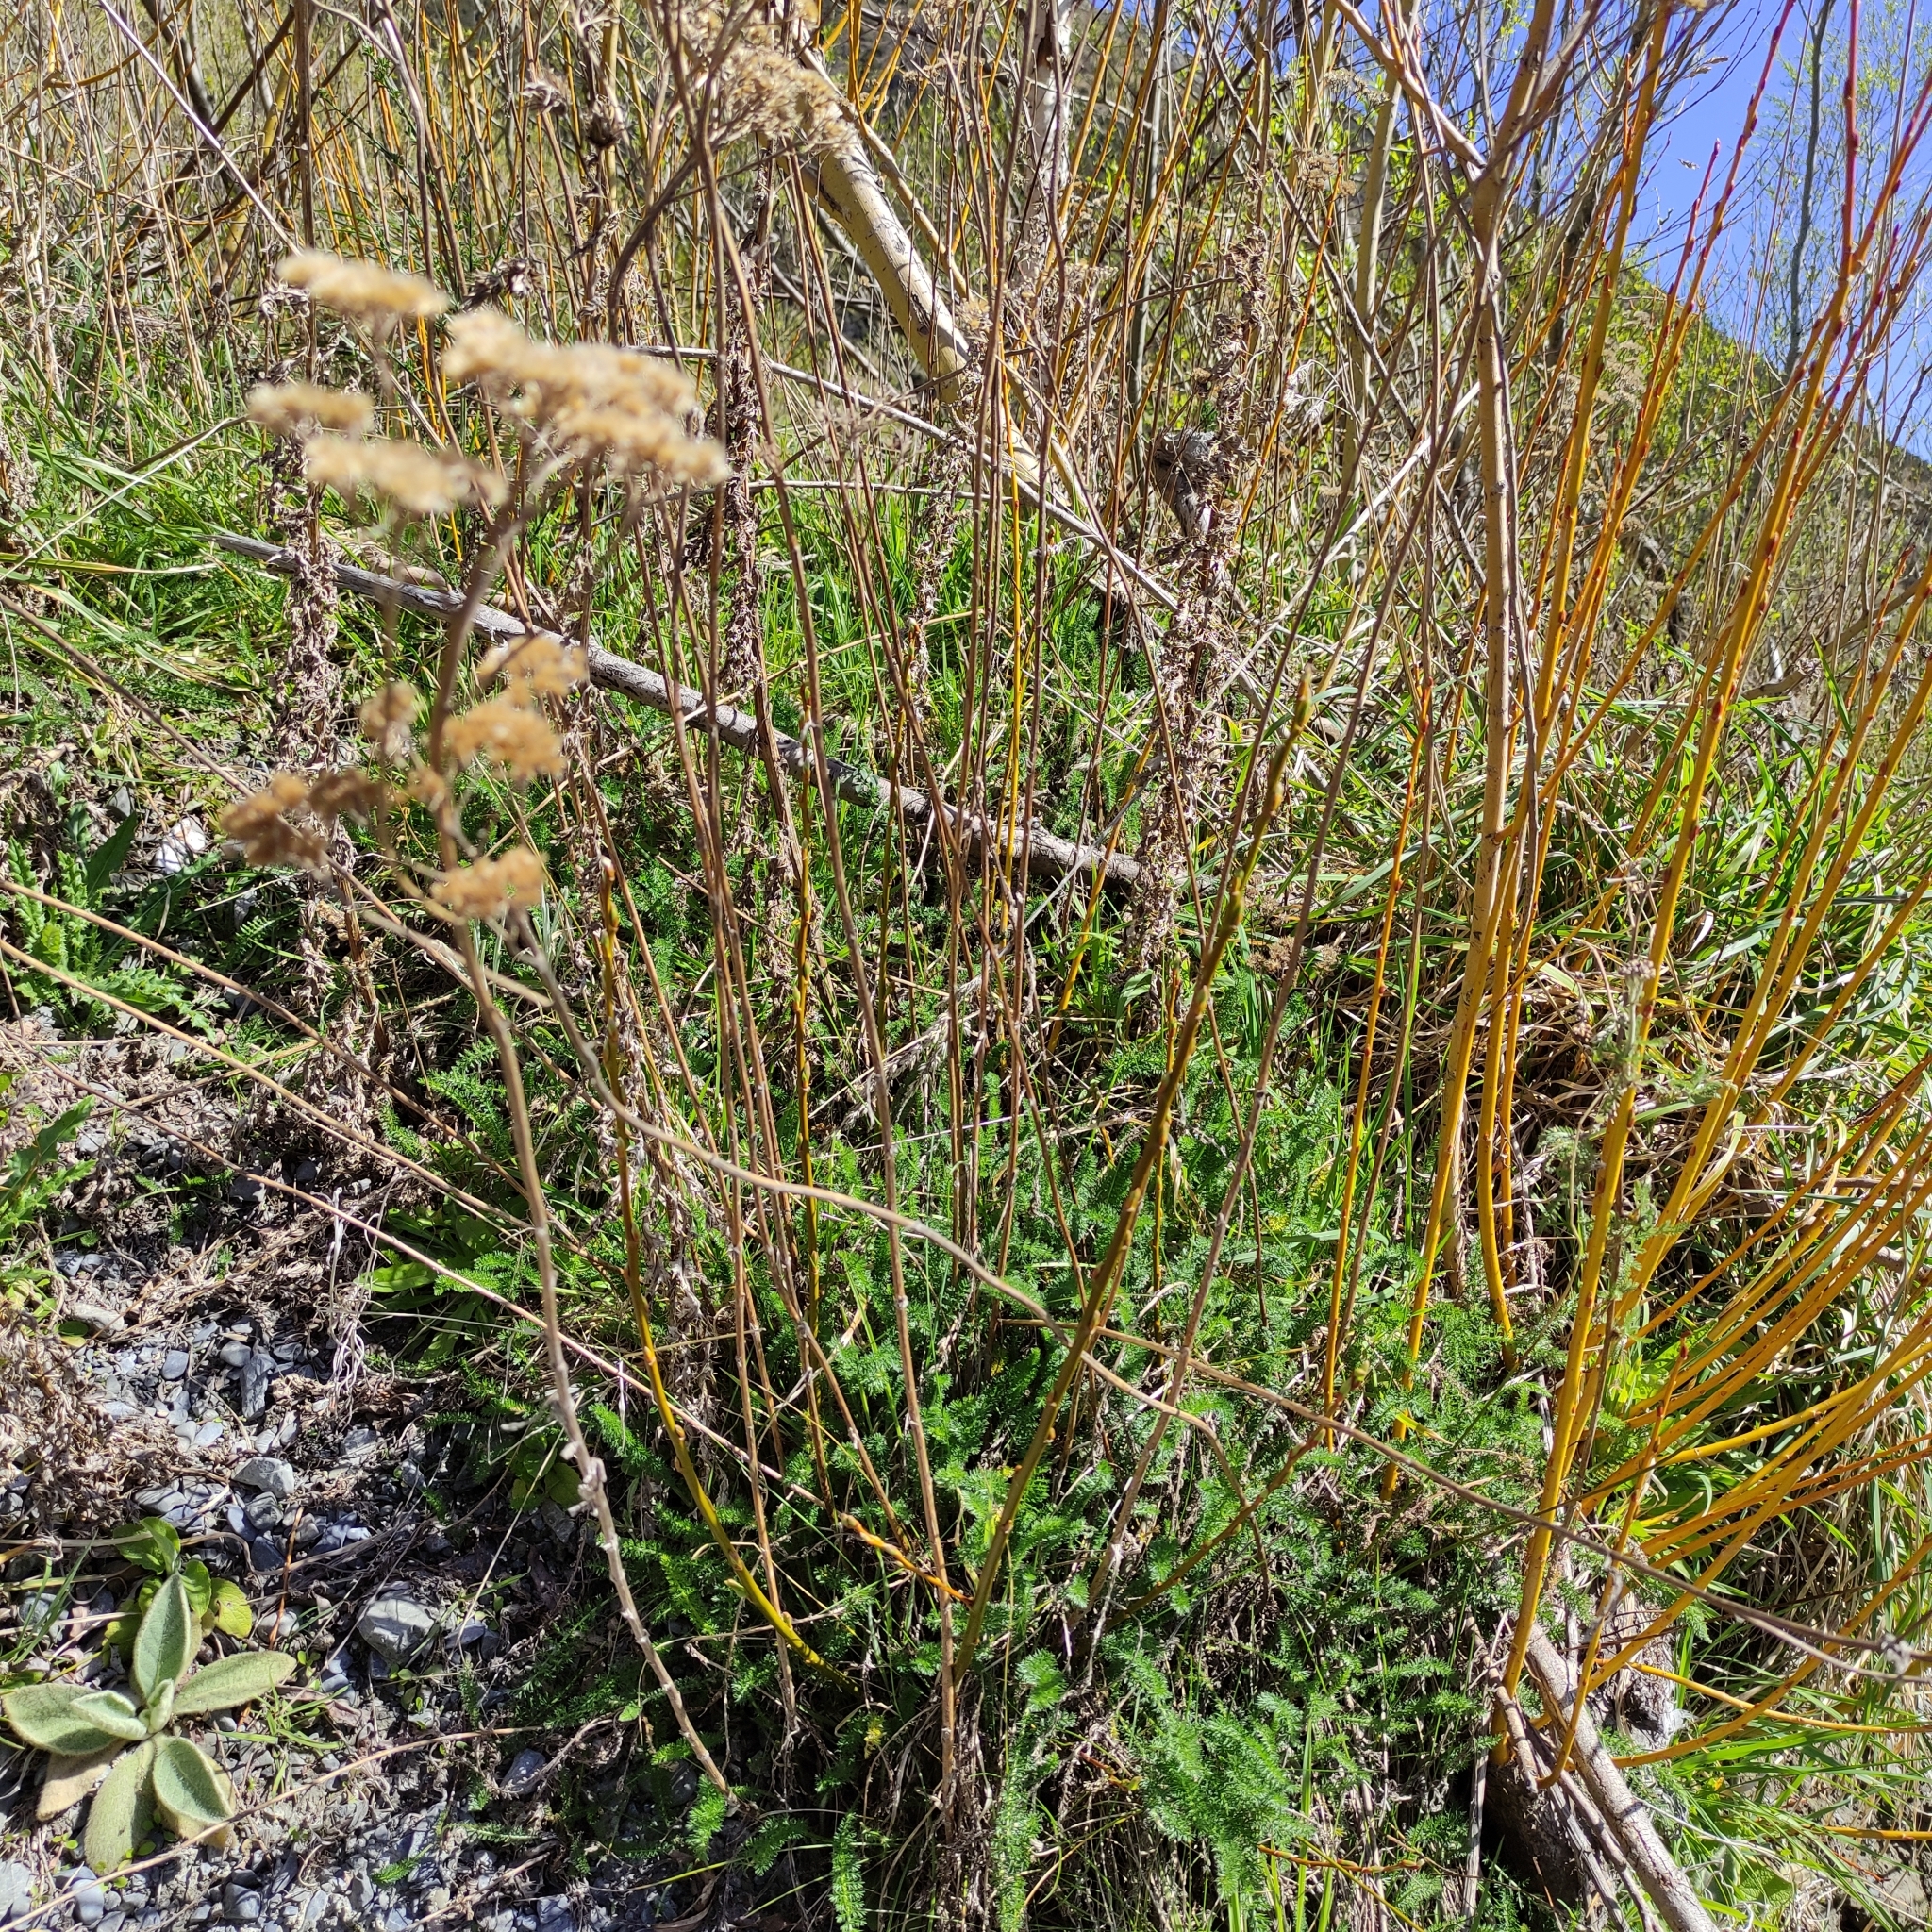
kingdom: Plantae
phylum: Tracheophyta
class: Magnoliopsida
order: Asterales
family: Asteraceae
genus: Achillea
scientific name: Achillea millefolium
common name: Yarrow
